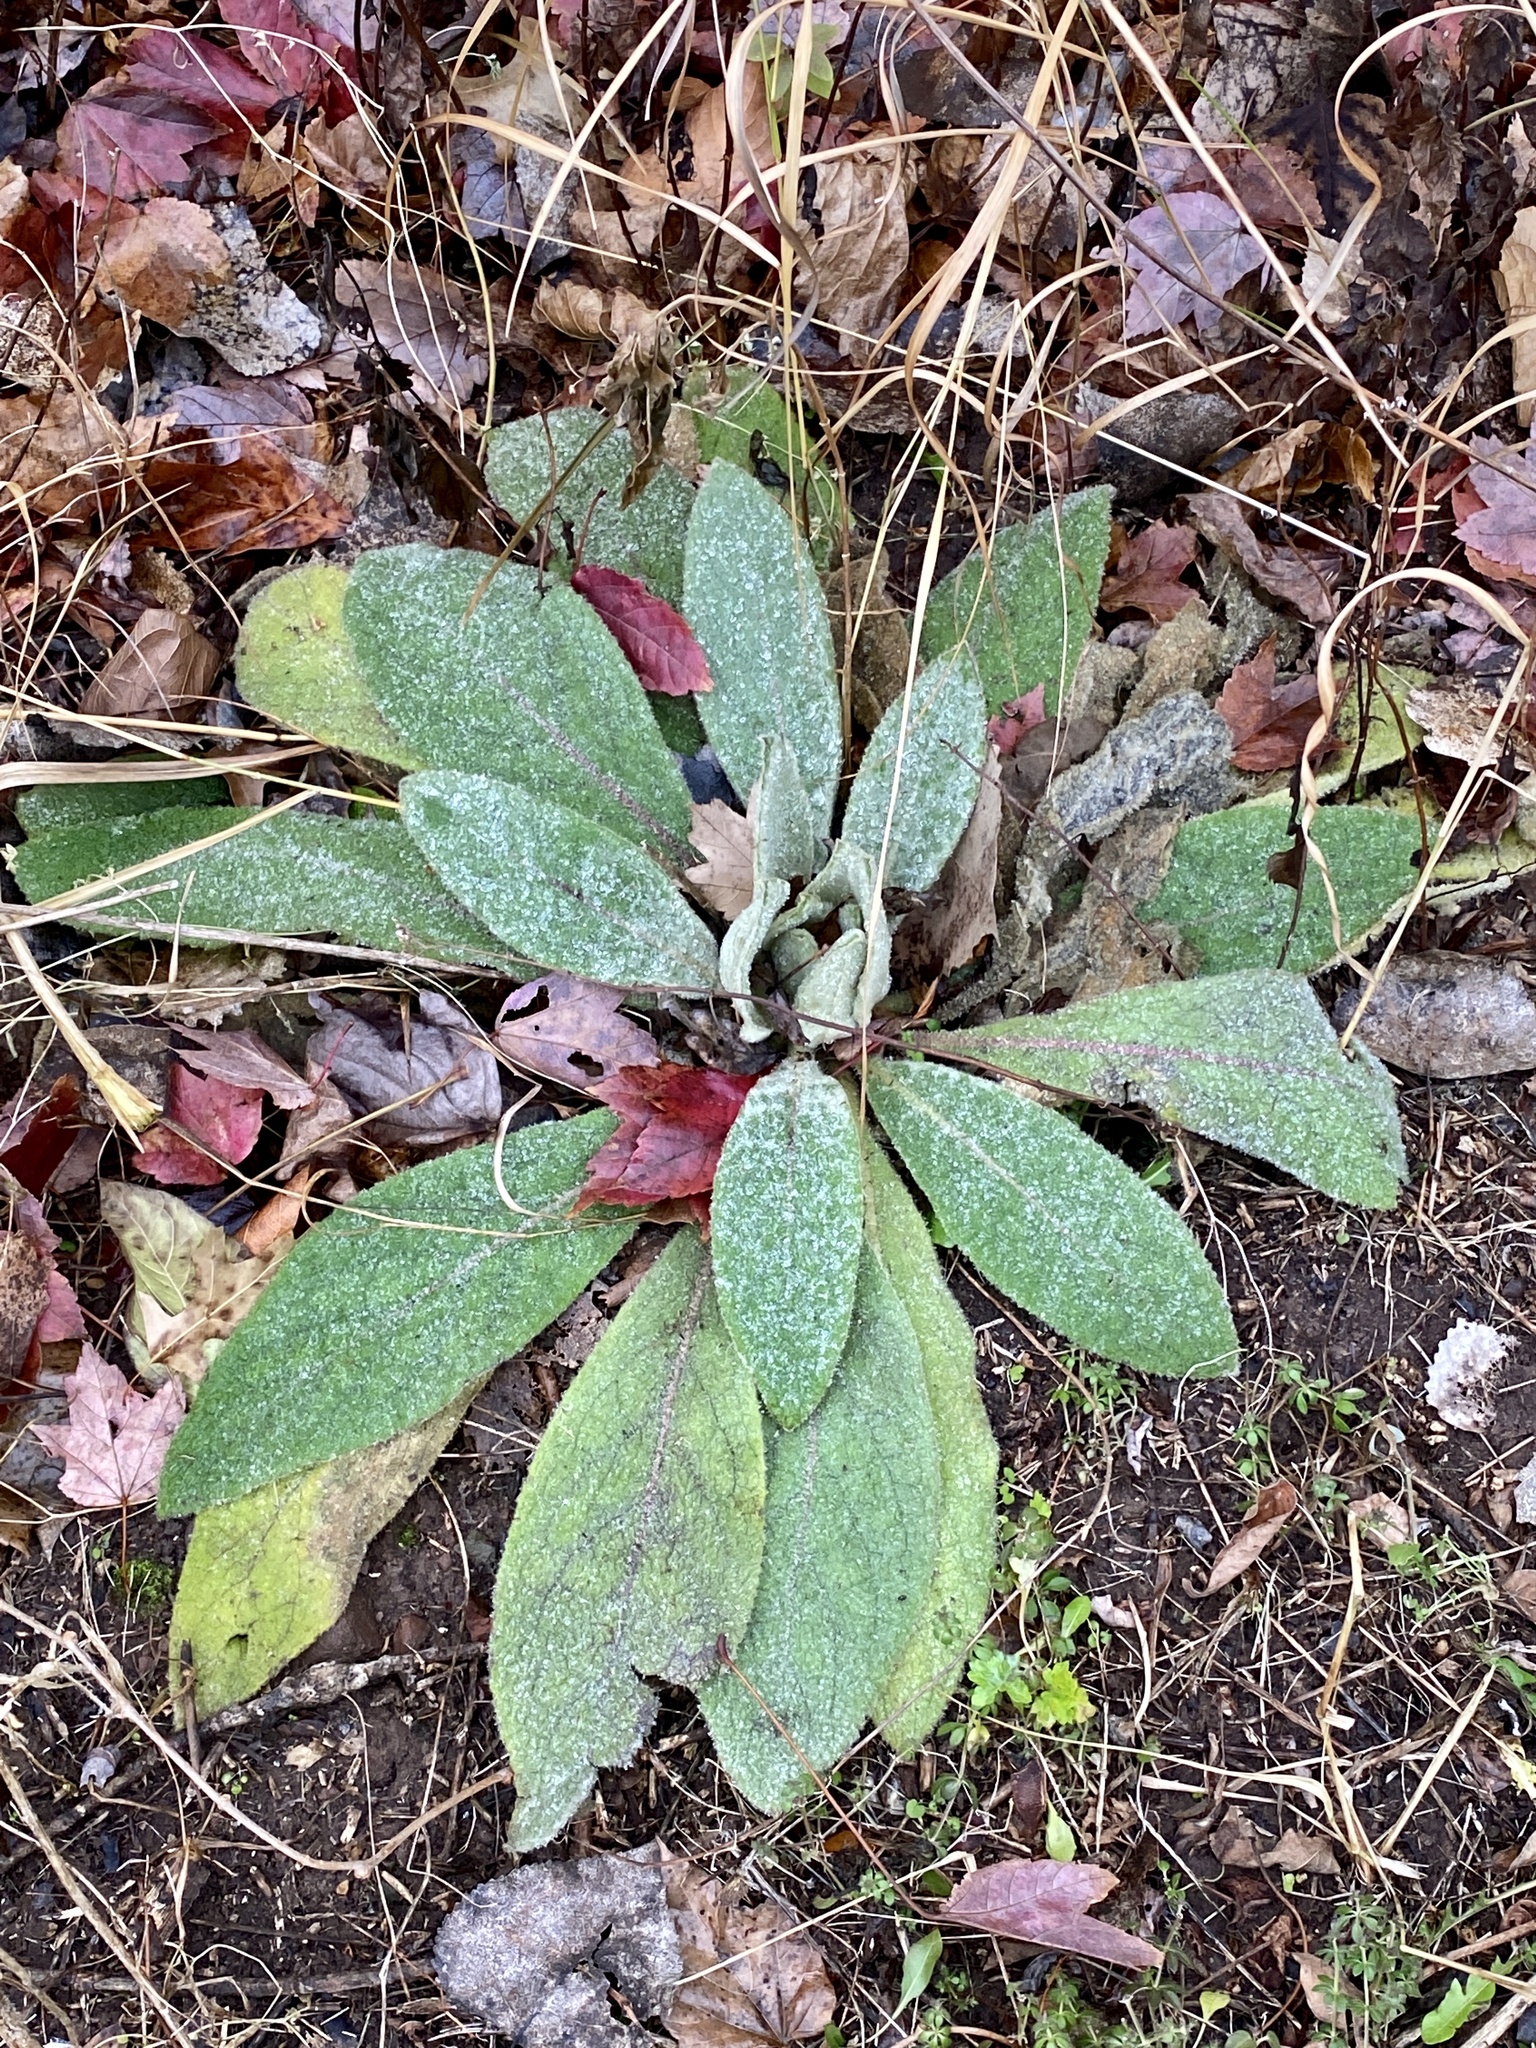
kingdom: Plantae
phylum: Tracheophyta
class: Magnoliopsida
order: Lamiales
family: Scrophulariaceae
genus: Verbascum
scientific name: Verbascum thapsus
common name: Common mullein
